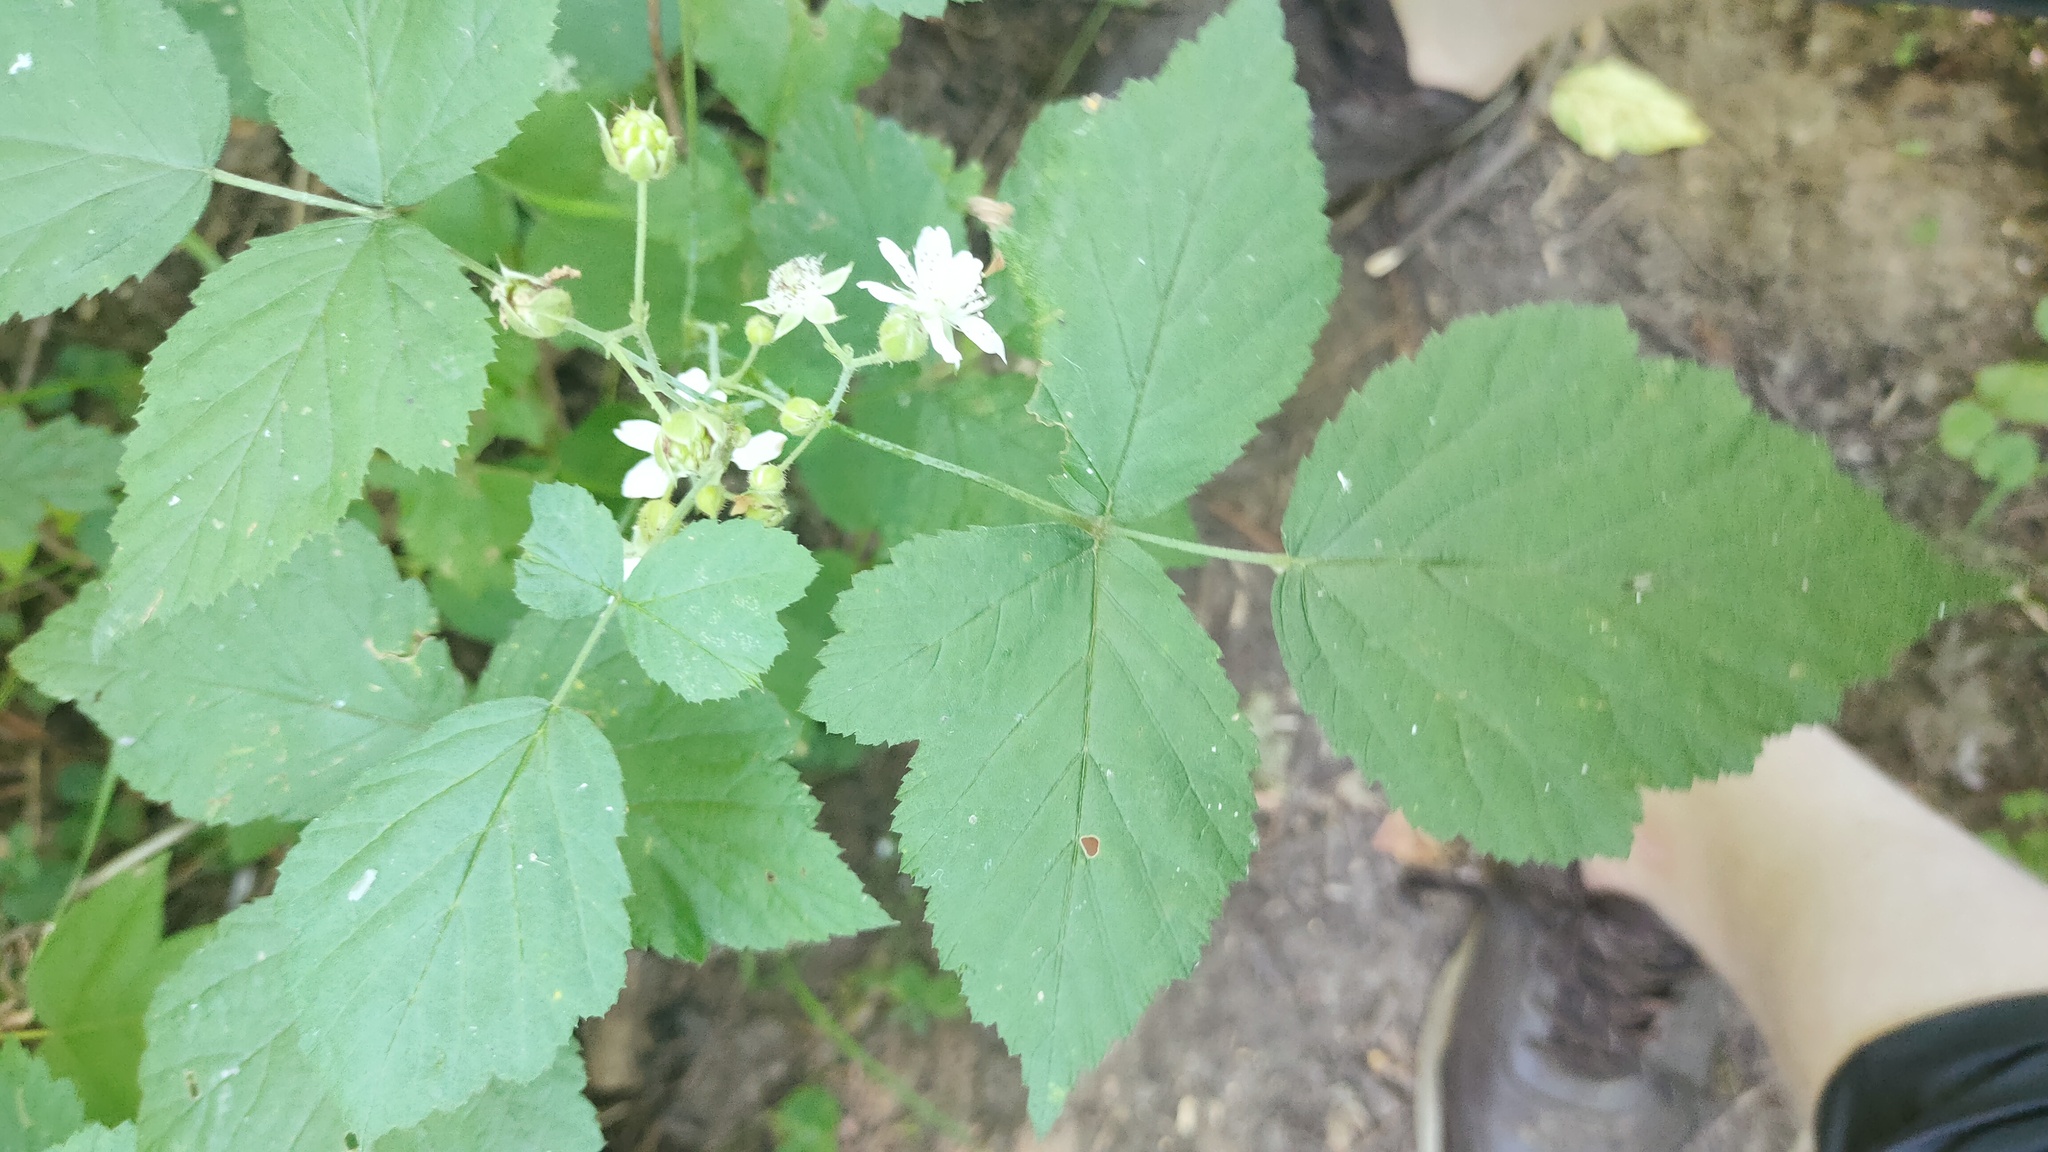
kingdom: Plantae
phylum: Tracheophyta
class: Magnoliopsida
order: Rosales
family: Rosaceae
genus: Rubus
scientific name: Rubus caesius
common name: Dewberry
